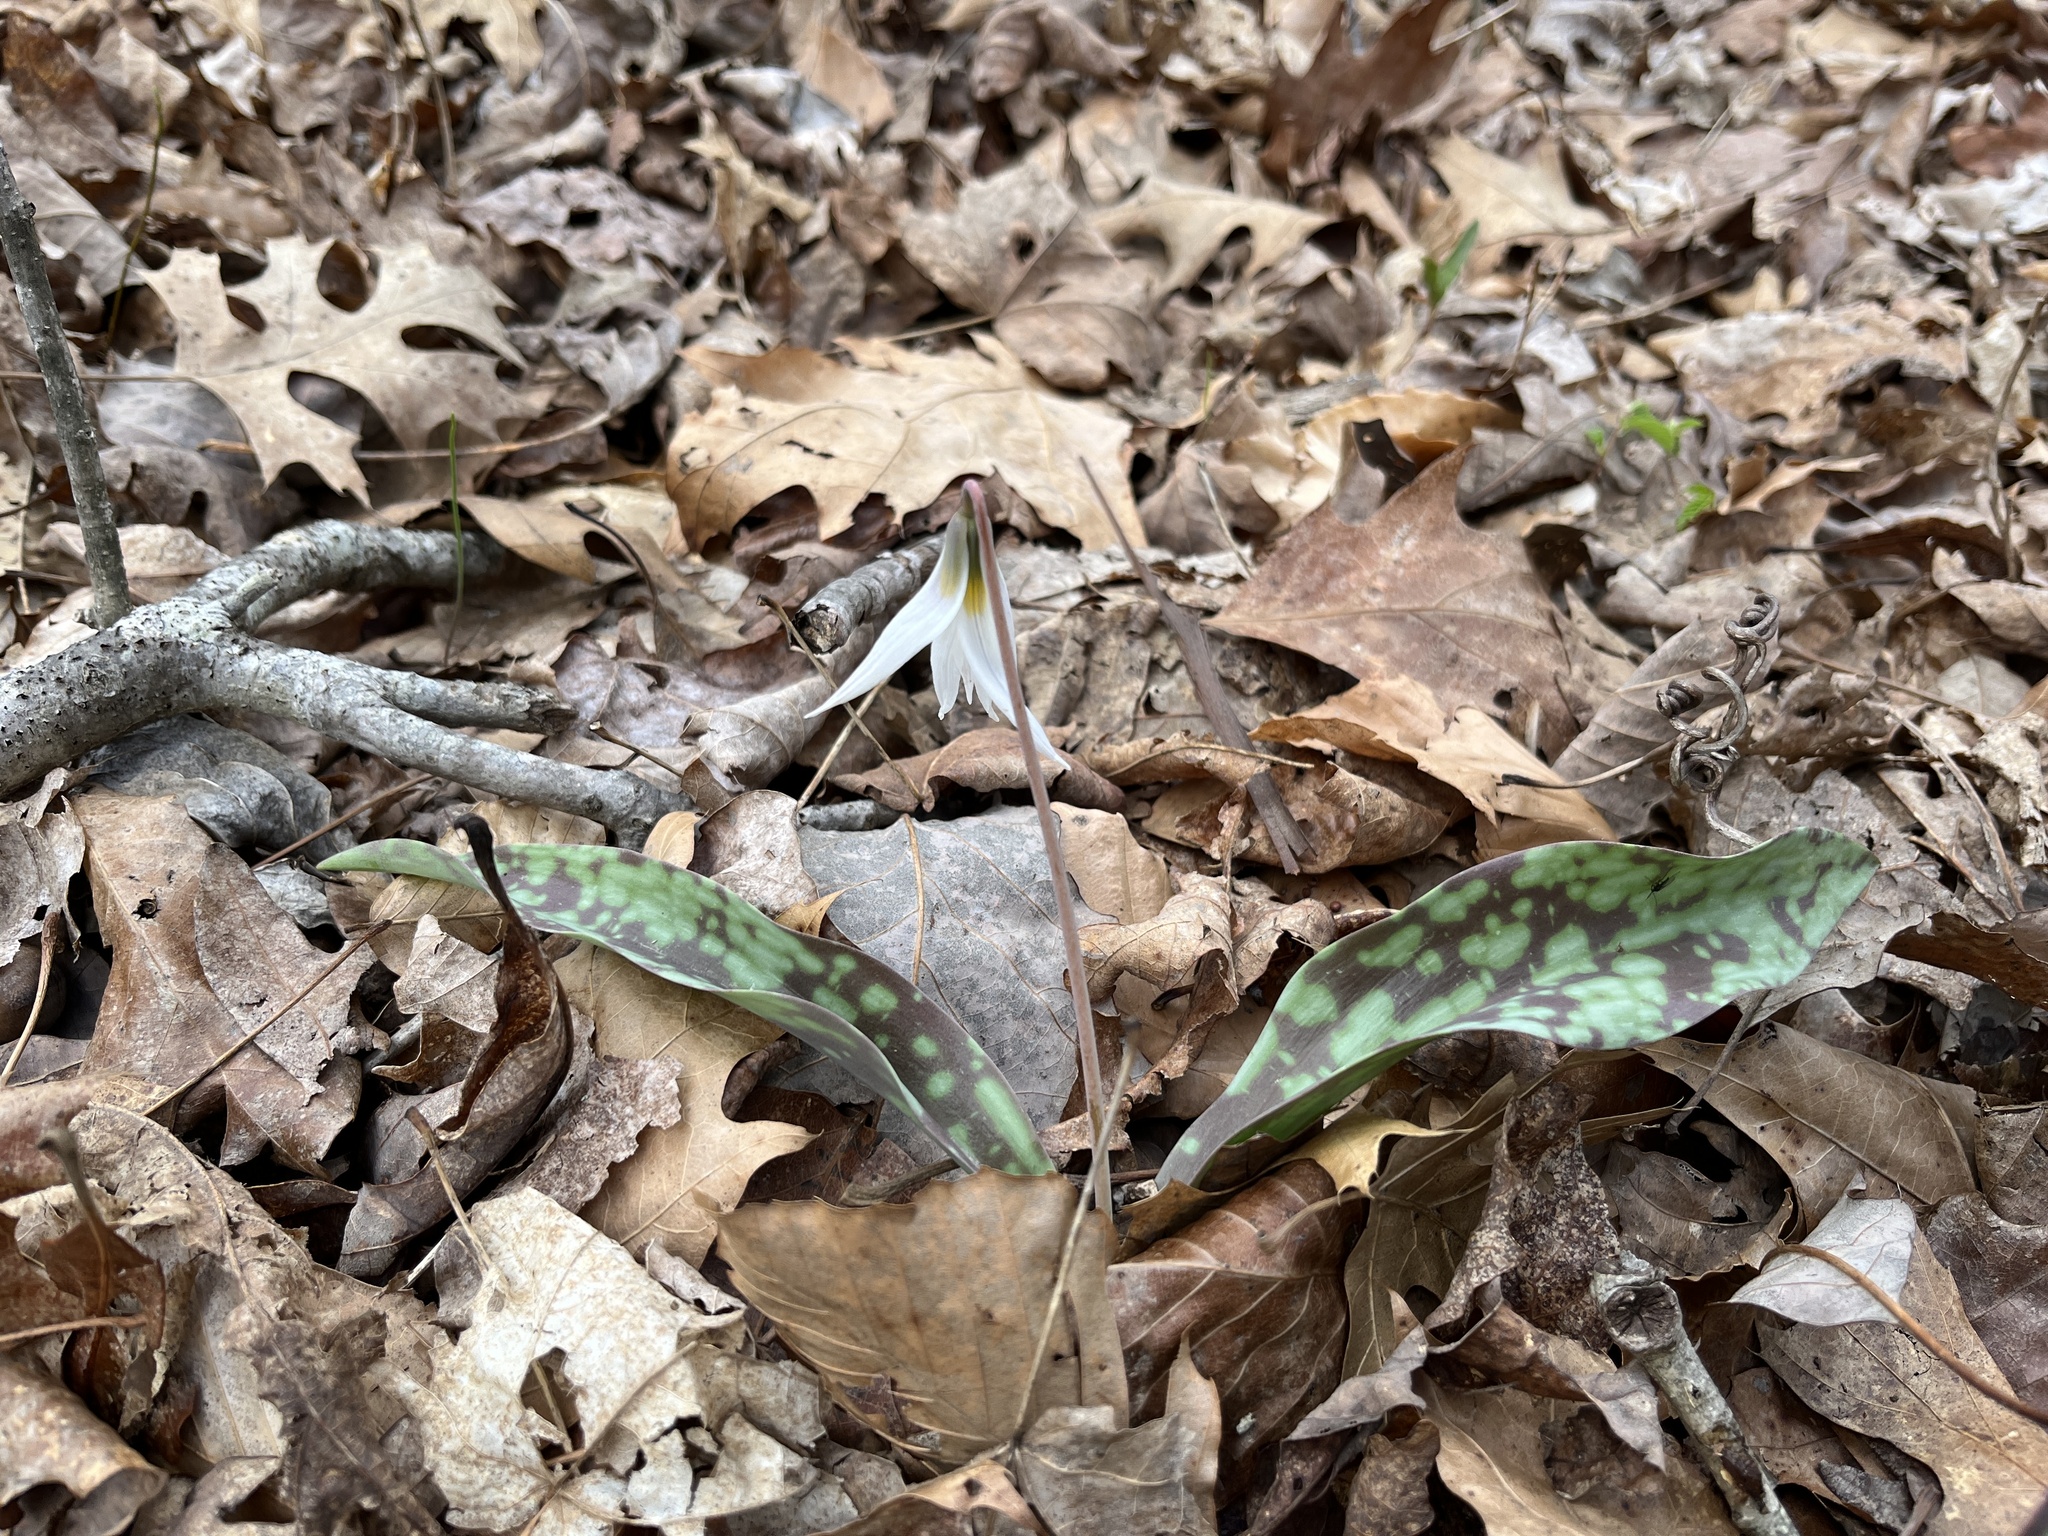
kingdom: Plantae
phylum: Tracheophyta
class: Liliopsida
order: Liliales
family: Liliaceae
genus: Erythronium
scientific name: Erythronium albidum
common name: White trout-lily
